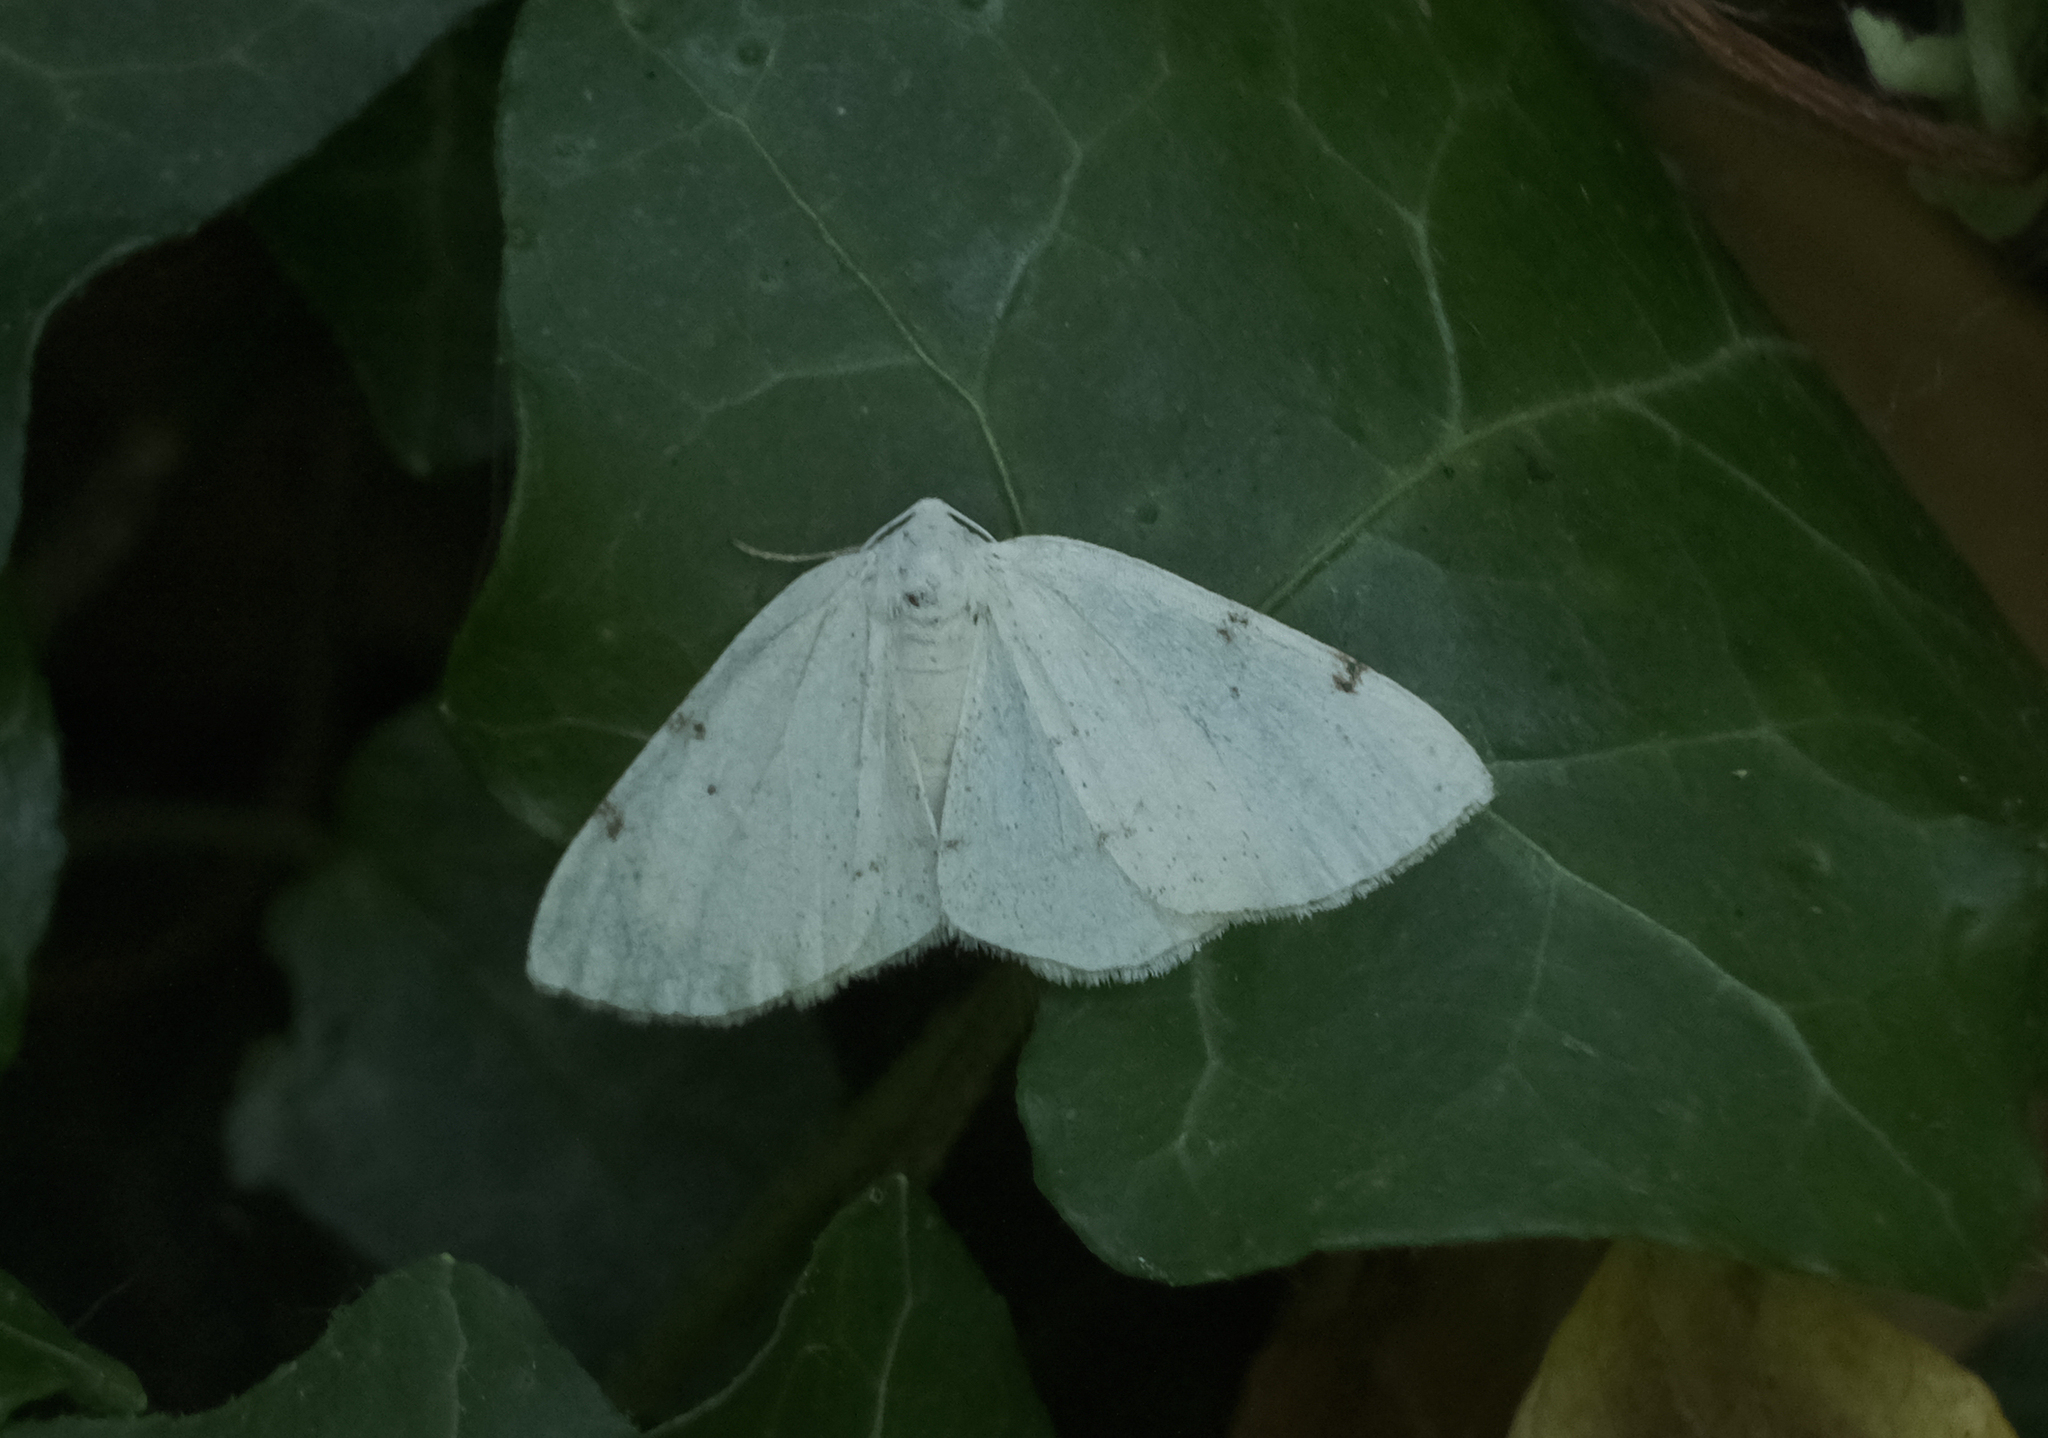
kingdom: Animalia
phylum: Arthropoda
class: Insecta
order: Lepidoptera
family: Geometridae
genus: Lomographa
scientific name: Lomographa bimaculata
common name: White-pinion spotted
